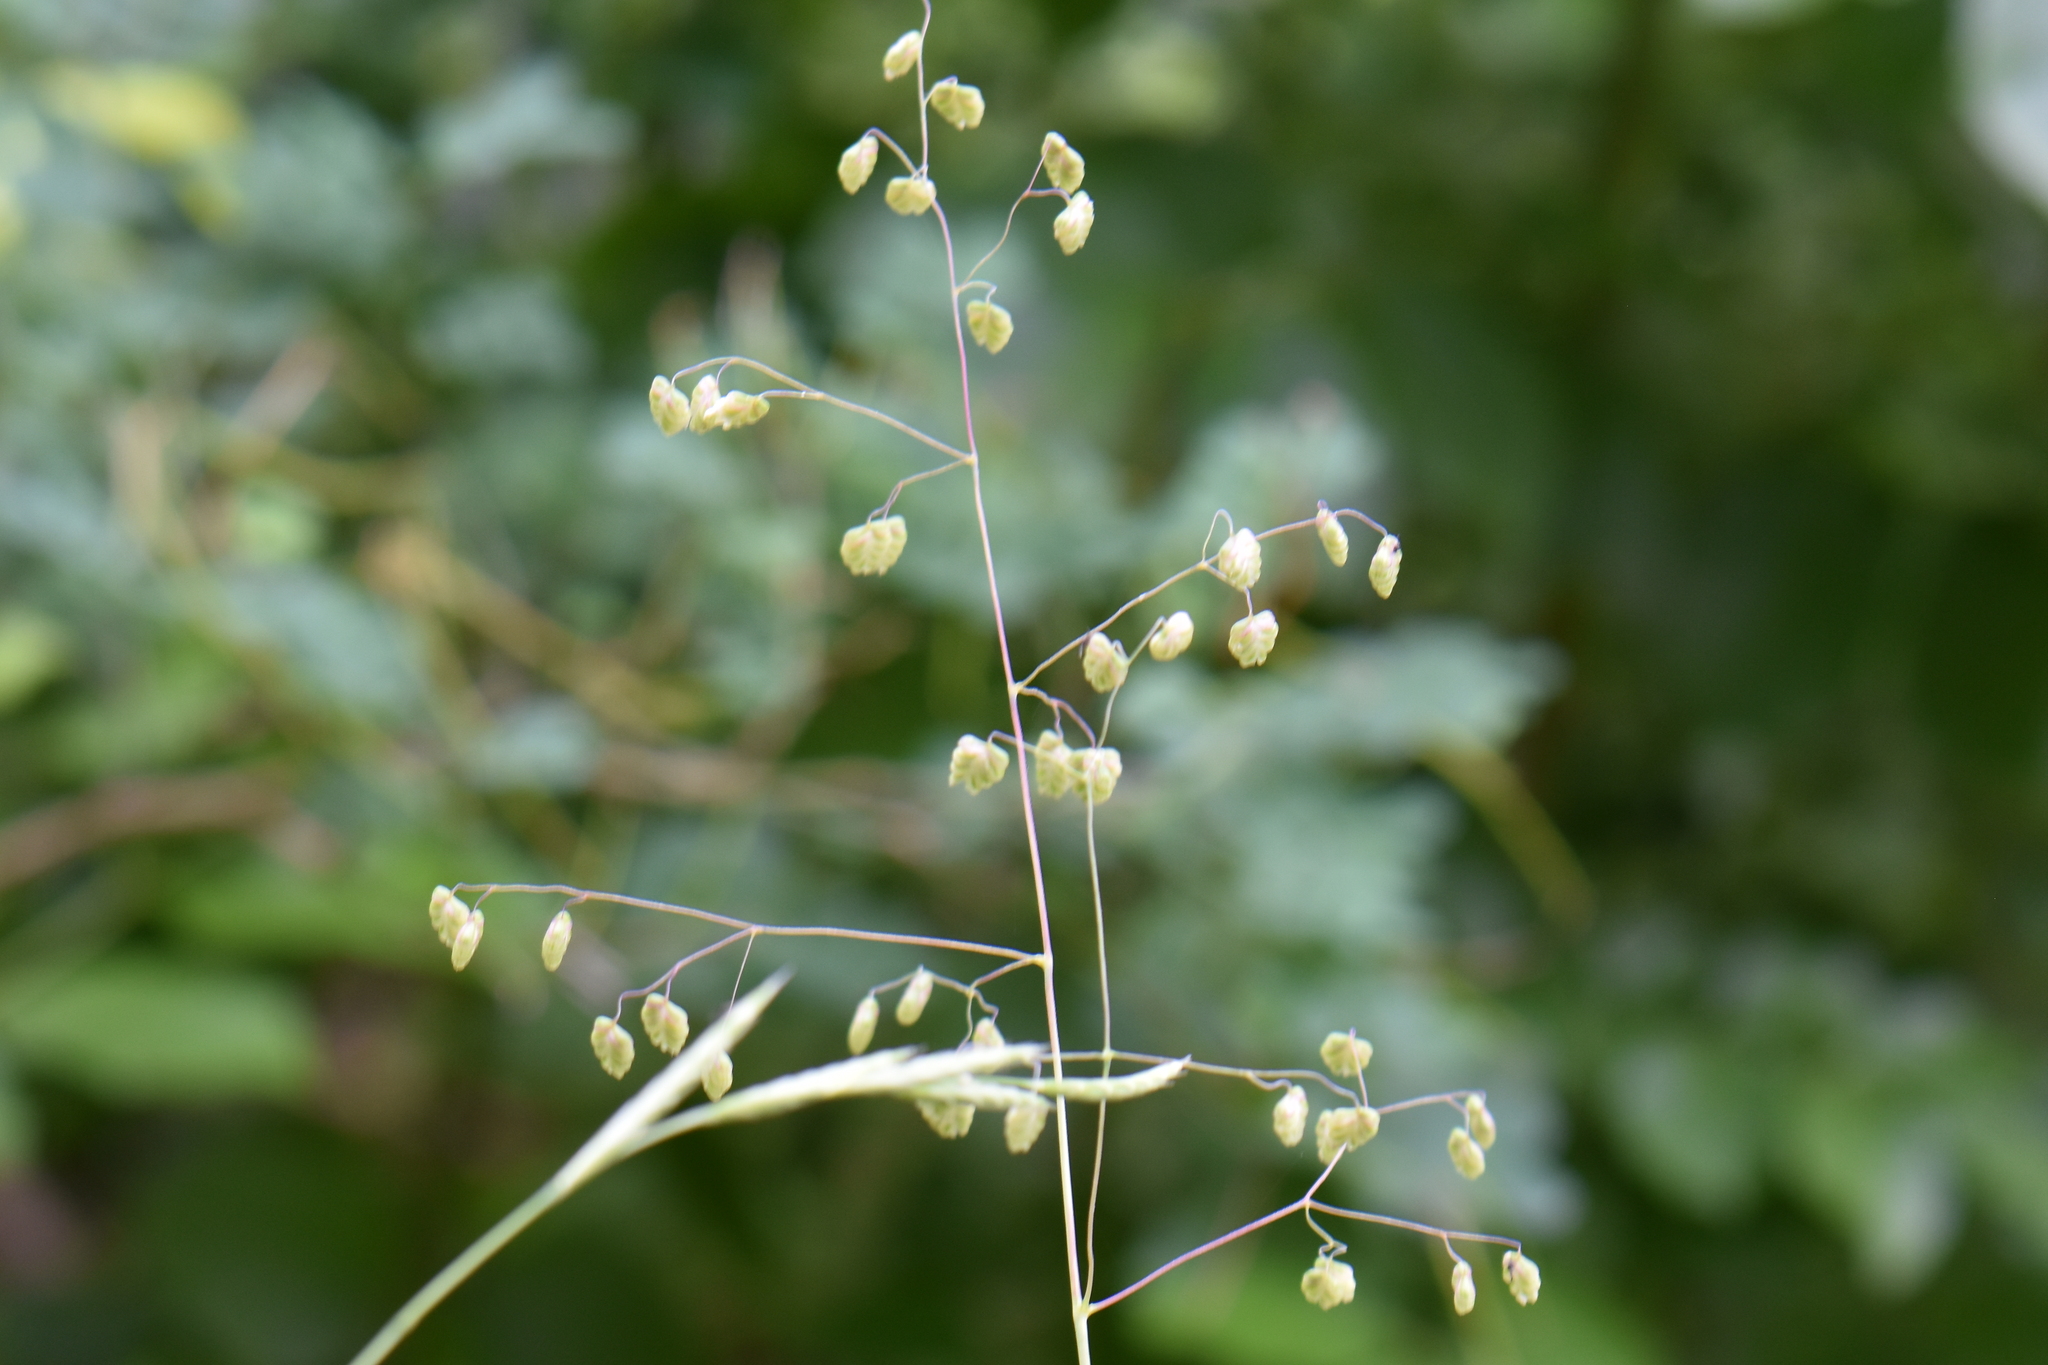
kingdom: Plantae
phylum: Tracheophyta
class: Liliopsida
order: Poales
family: Poaceae
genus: Briza
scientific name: Briza media
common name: Quaking grass
